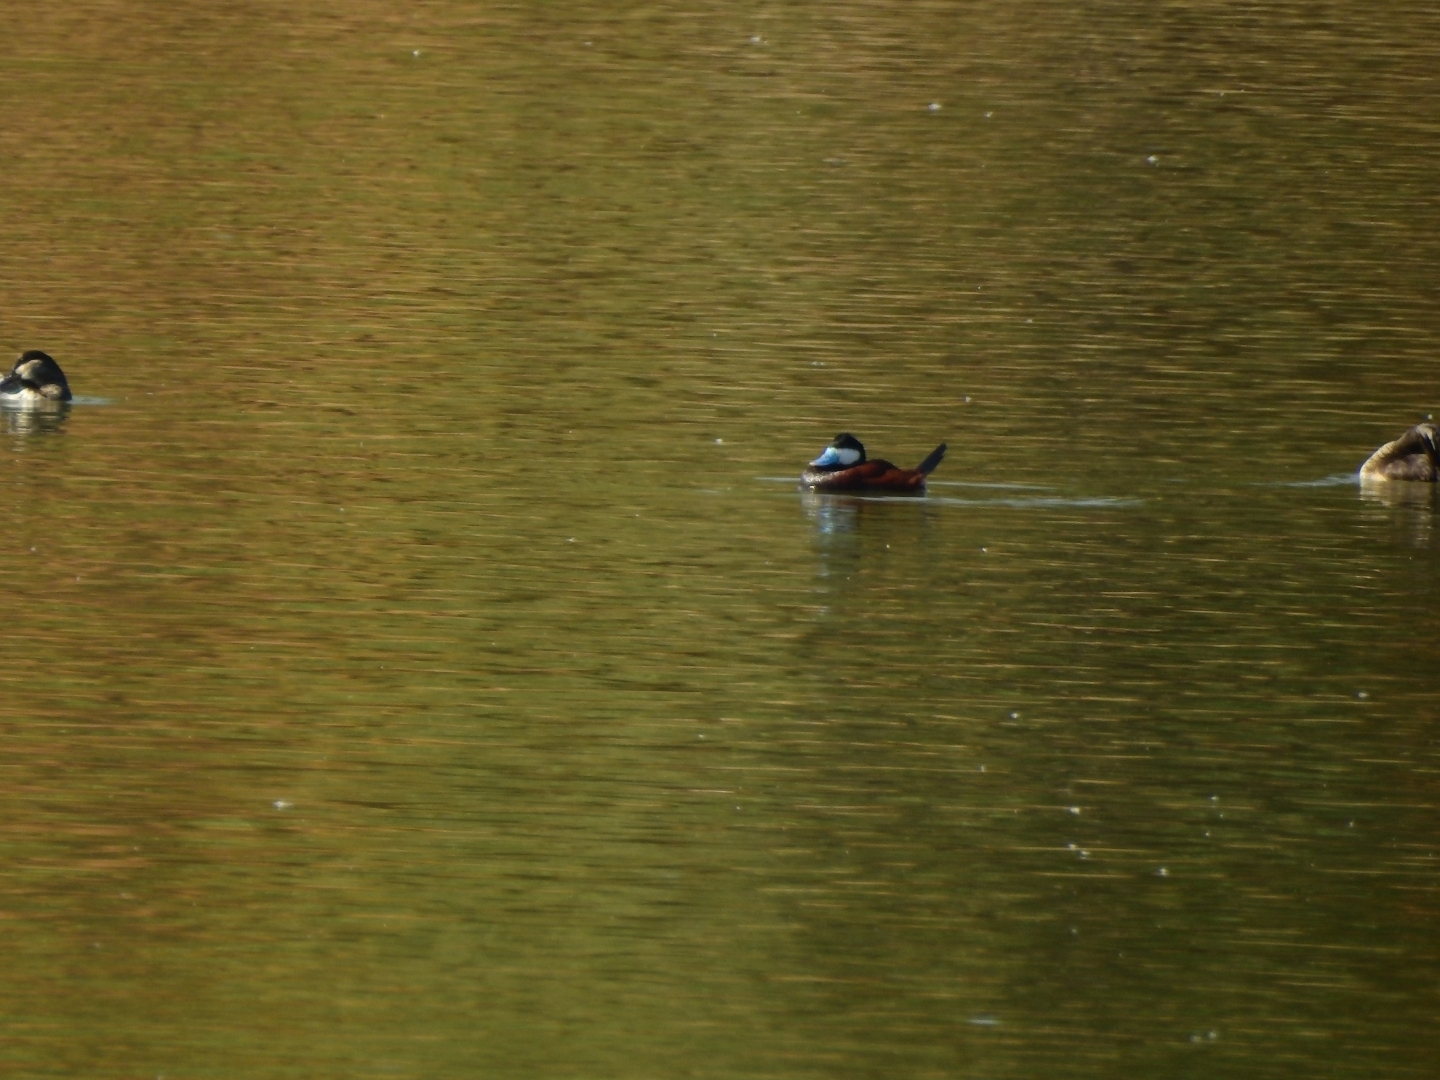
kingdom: Animalia
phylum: Chordata
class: Aves
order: Anseriformes
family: Anatidae
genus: Oxyura
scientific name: Oxyura jamaicensis
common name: Ruddy duck
